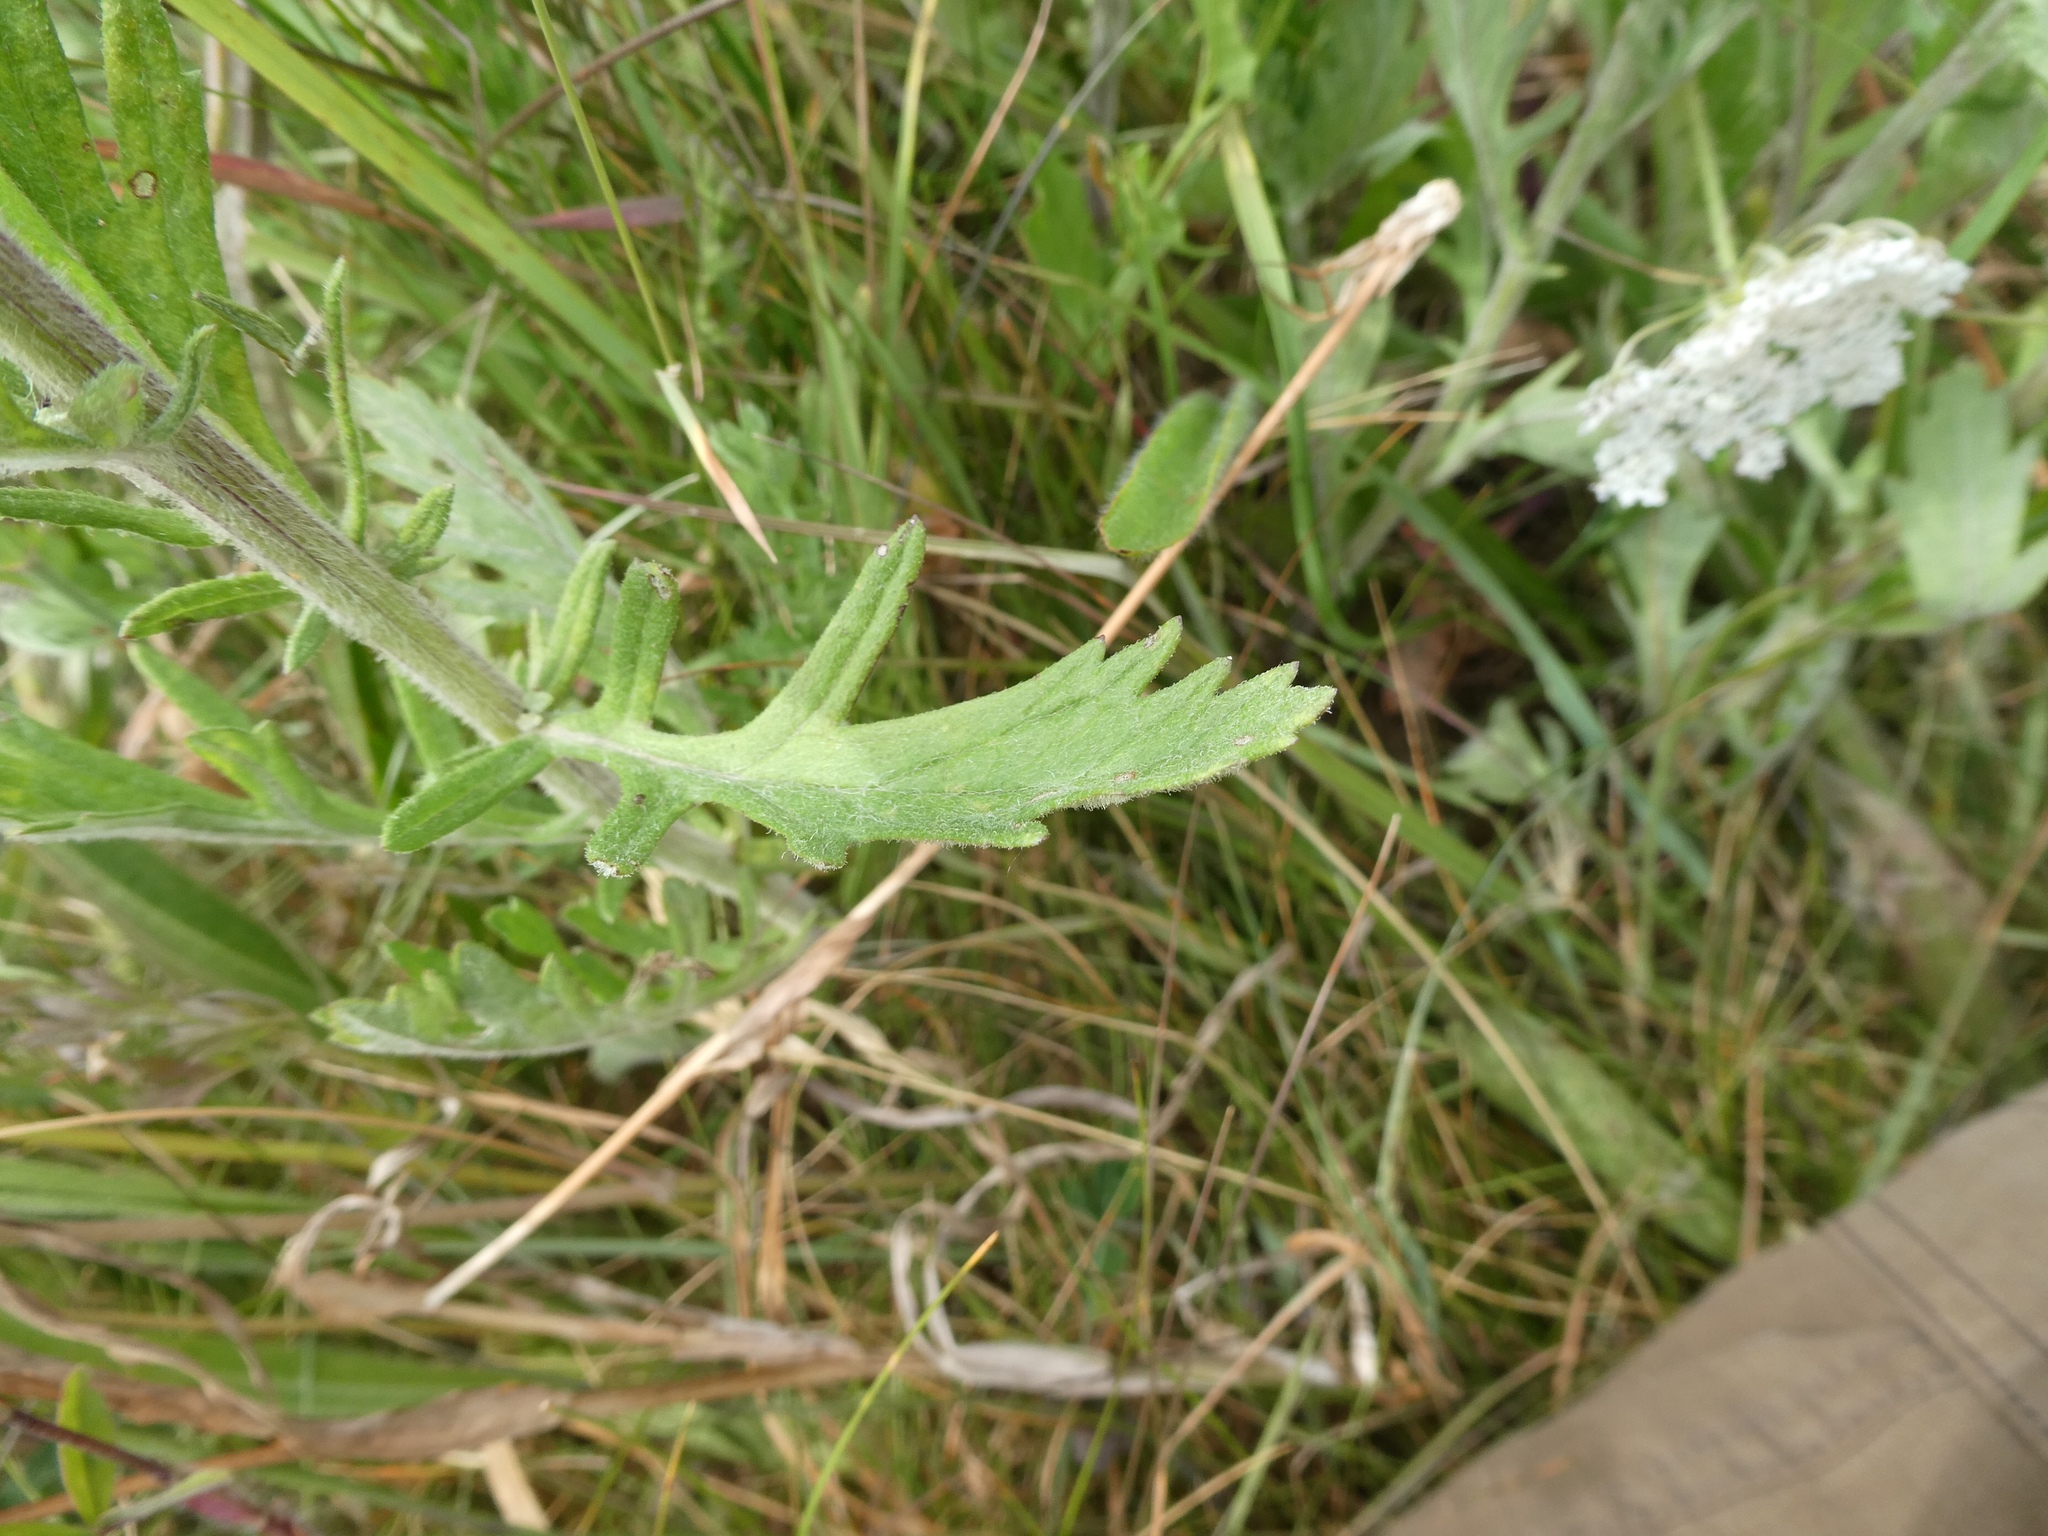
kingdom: Plantae
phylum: Tracheophyta
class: Magnoliopsida
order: Asterales
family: Asteraceae
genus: Jacobaea
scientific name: Jacobaea erucifolia
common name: Hoary ragwort
